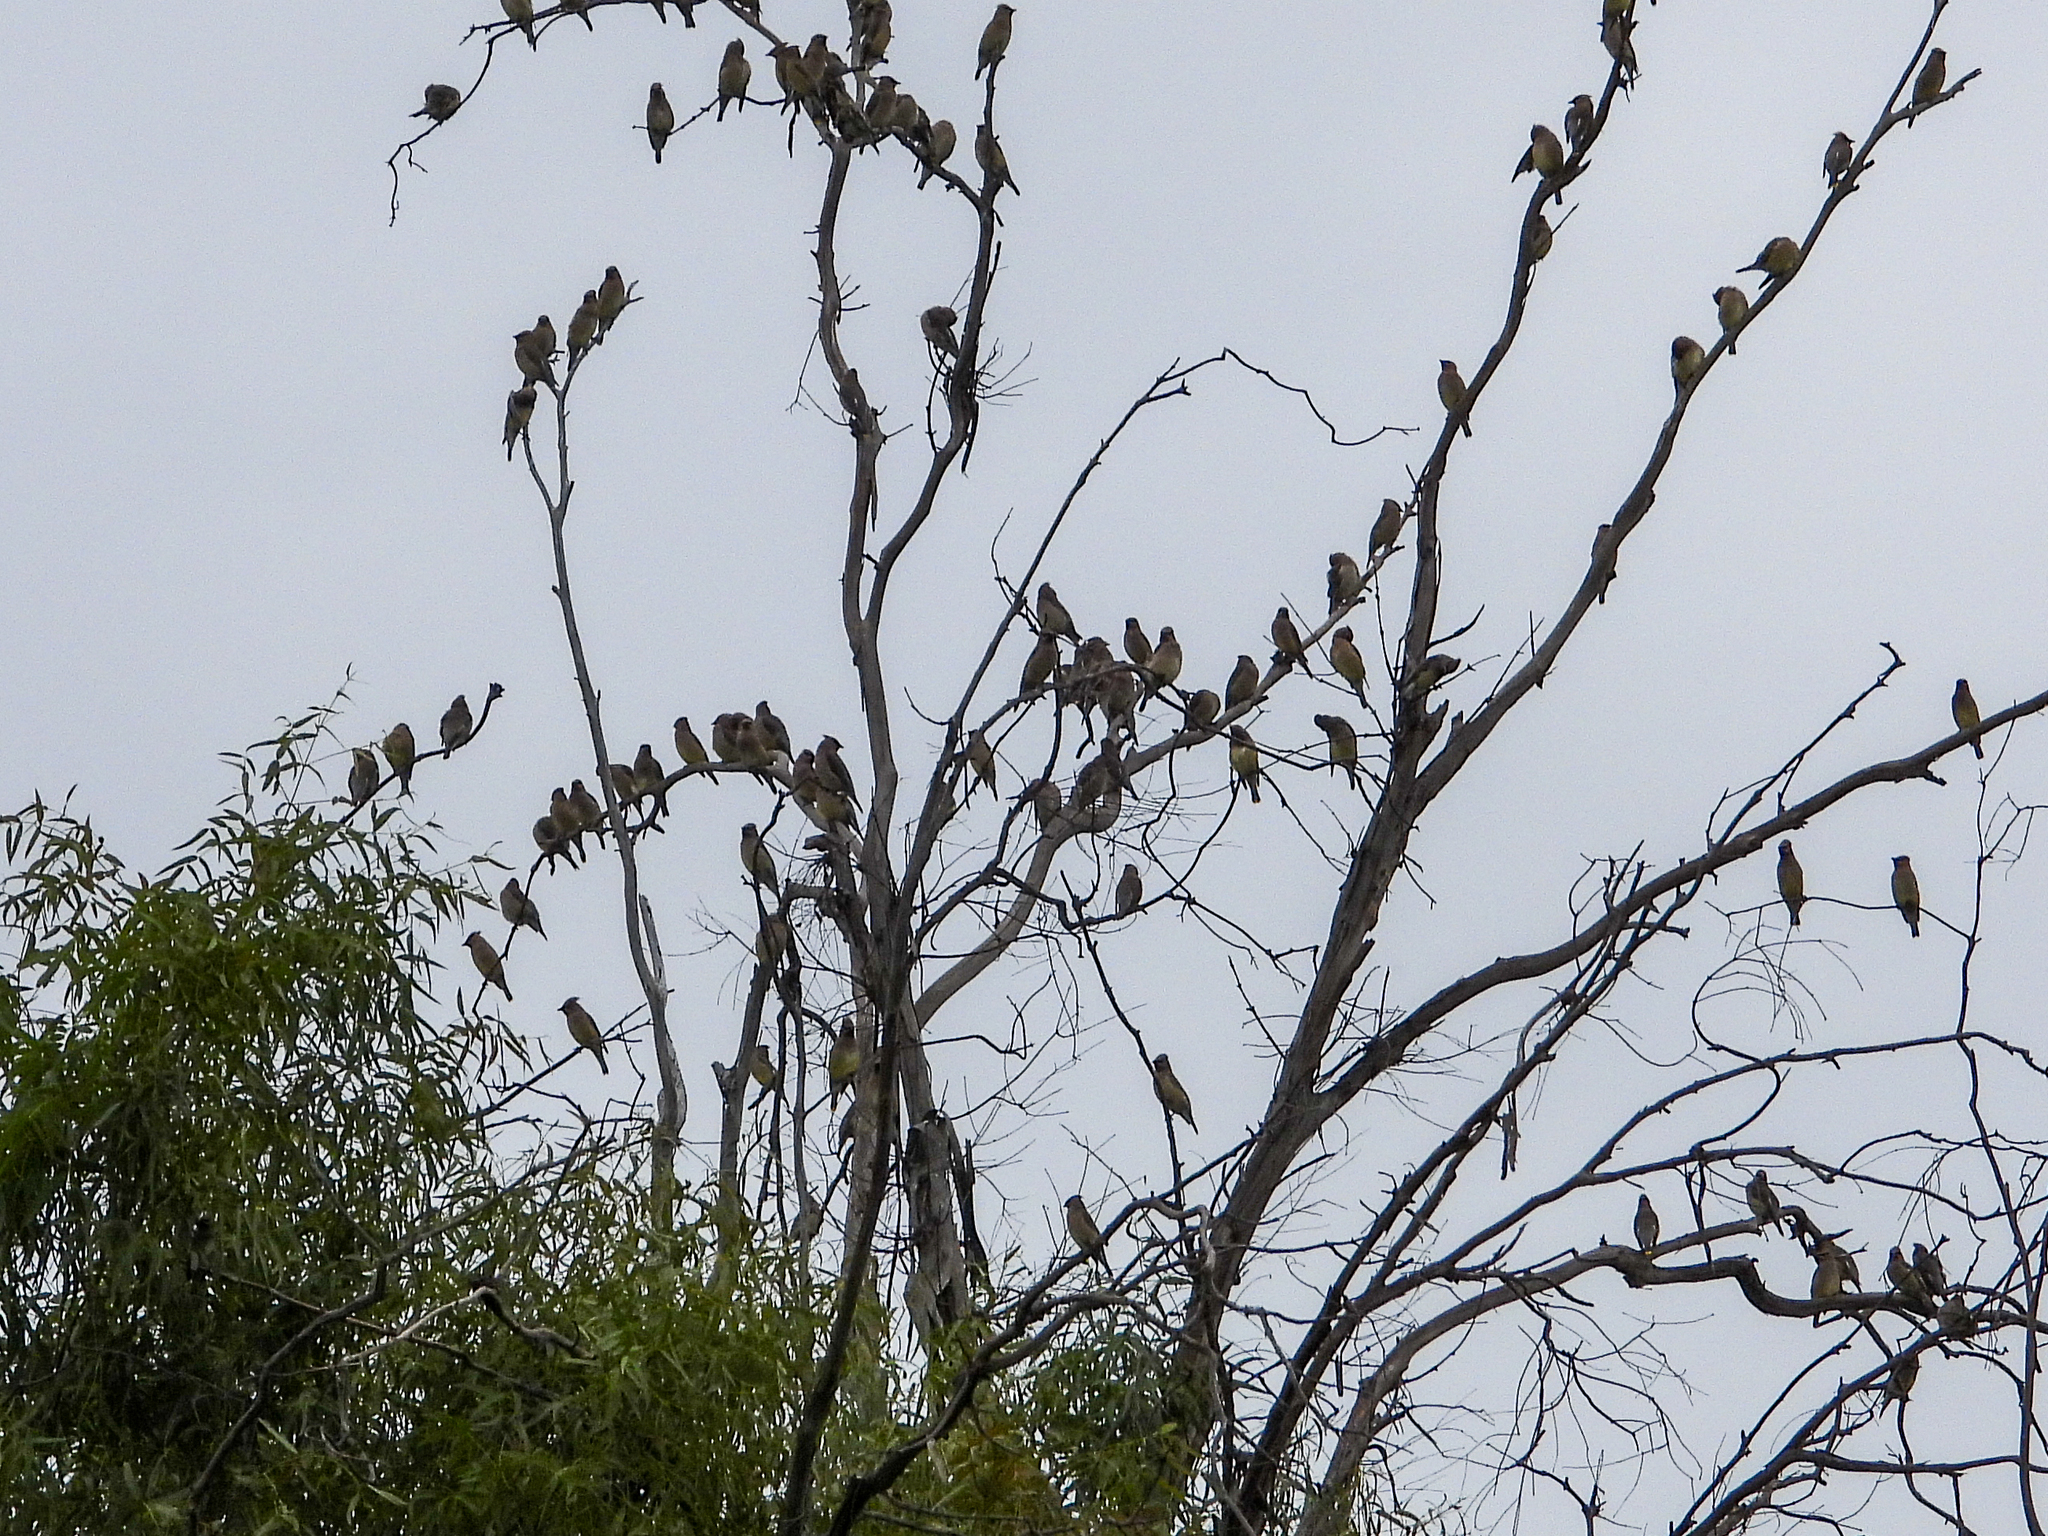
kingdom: Animalia
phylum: Chordata
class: Aves
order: Passeriformes
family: Bombycillidae
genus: Bombycilla
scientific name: Bombycilla cedrorum
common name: Cedar waxwing
